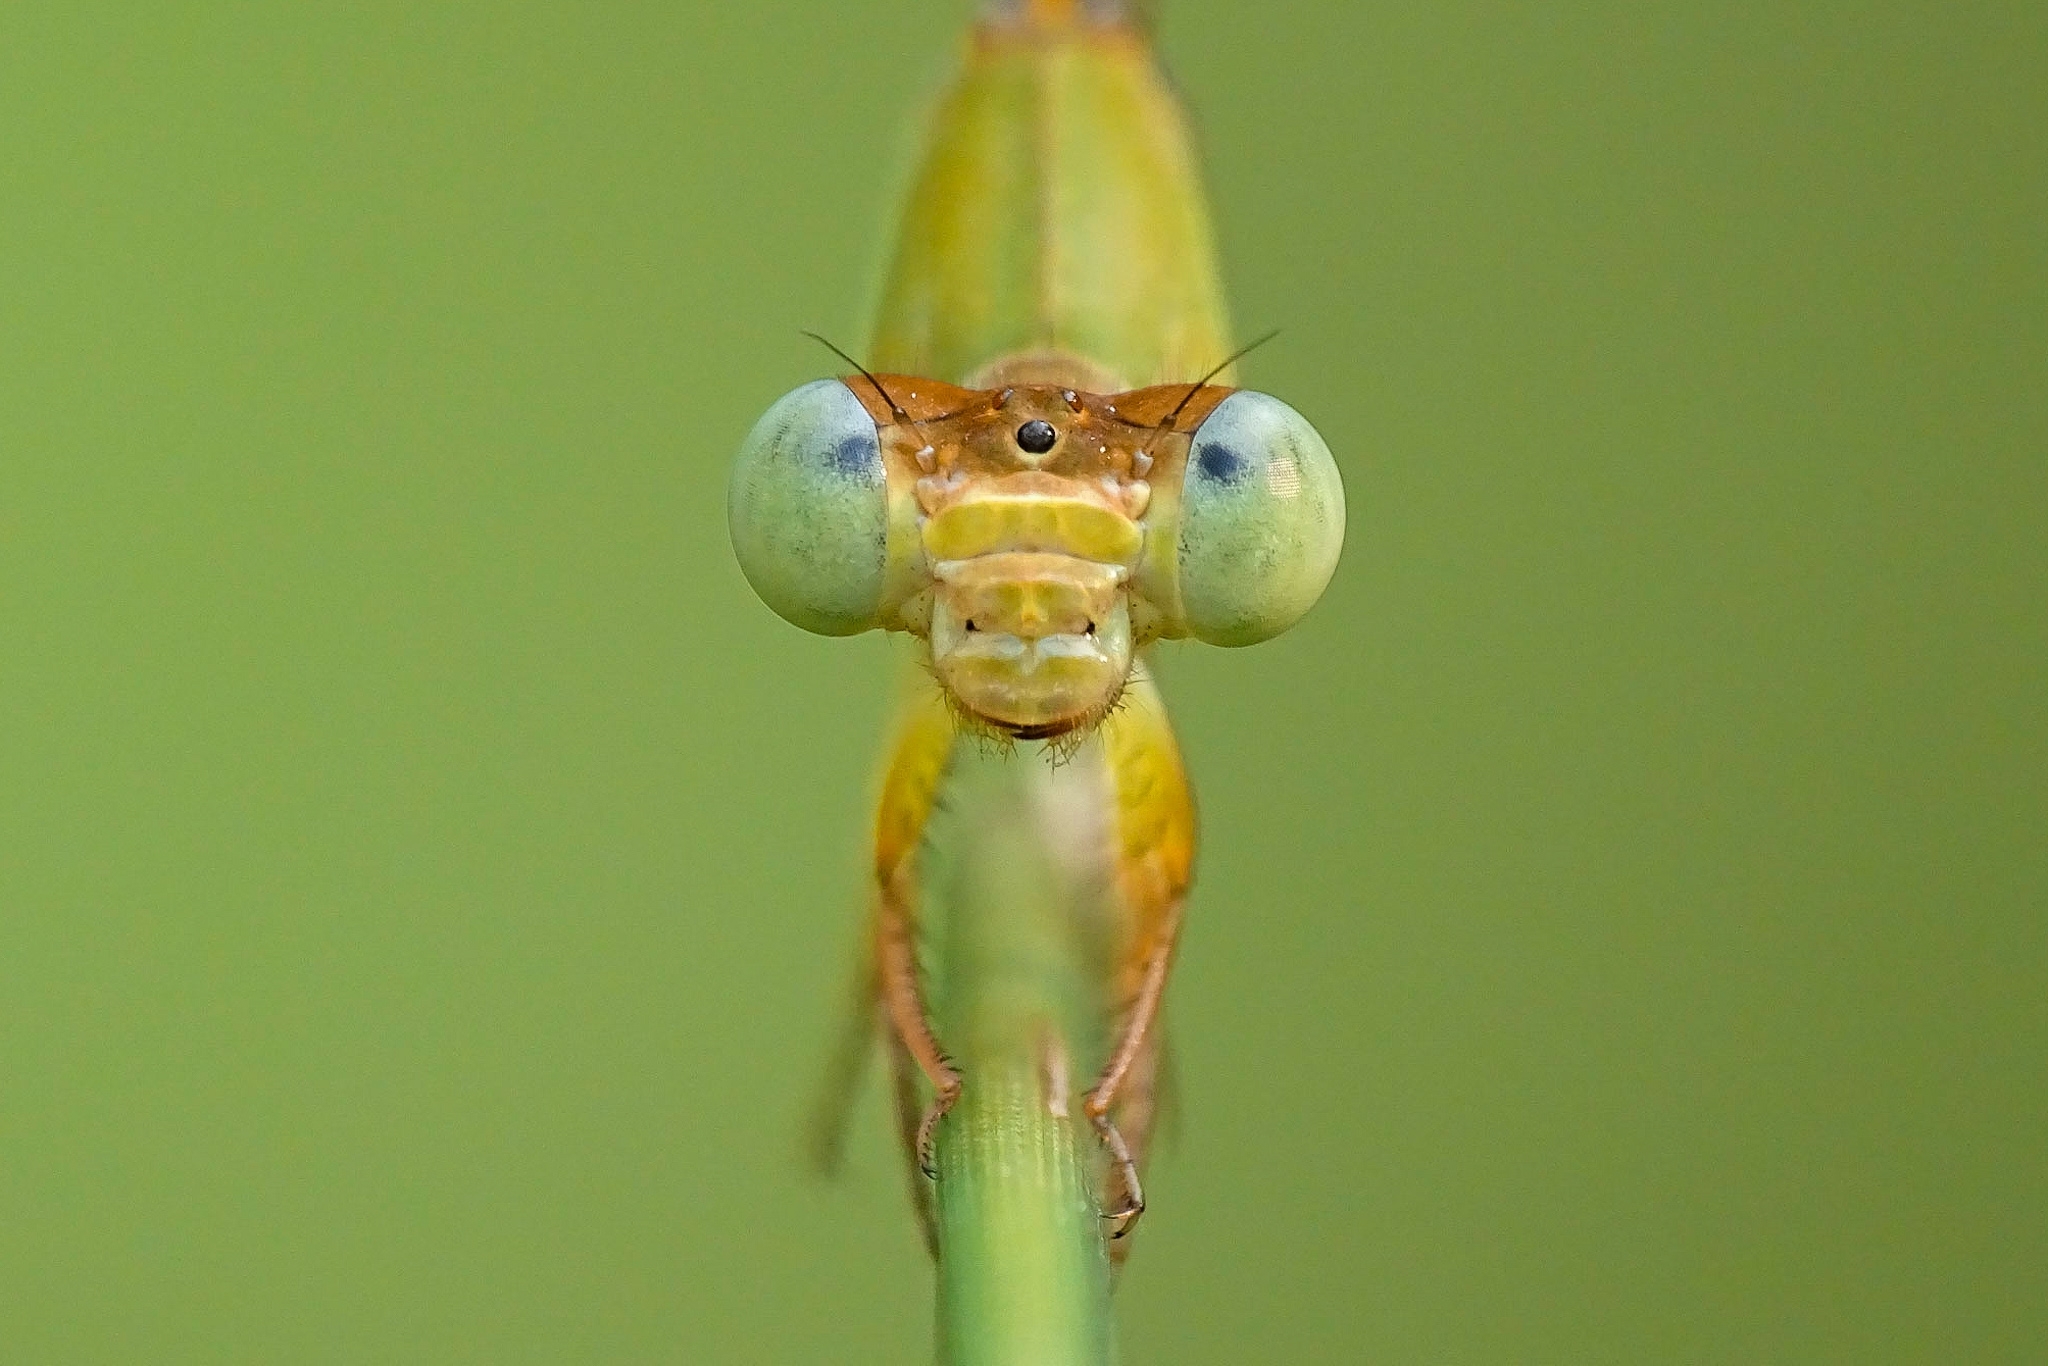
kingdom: Animalia
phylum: Arthropoda
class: Insecta
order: Odonata
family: Coenagrionidae
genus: Ceriagrion
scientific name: Ceriagrion coromandelianum
